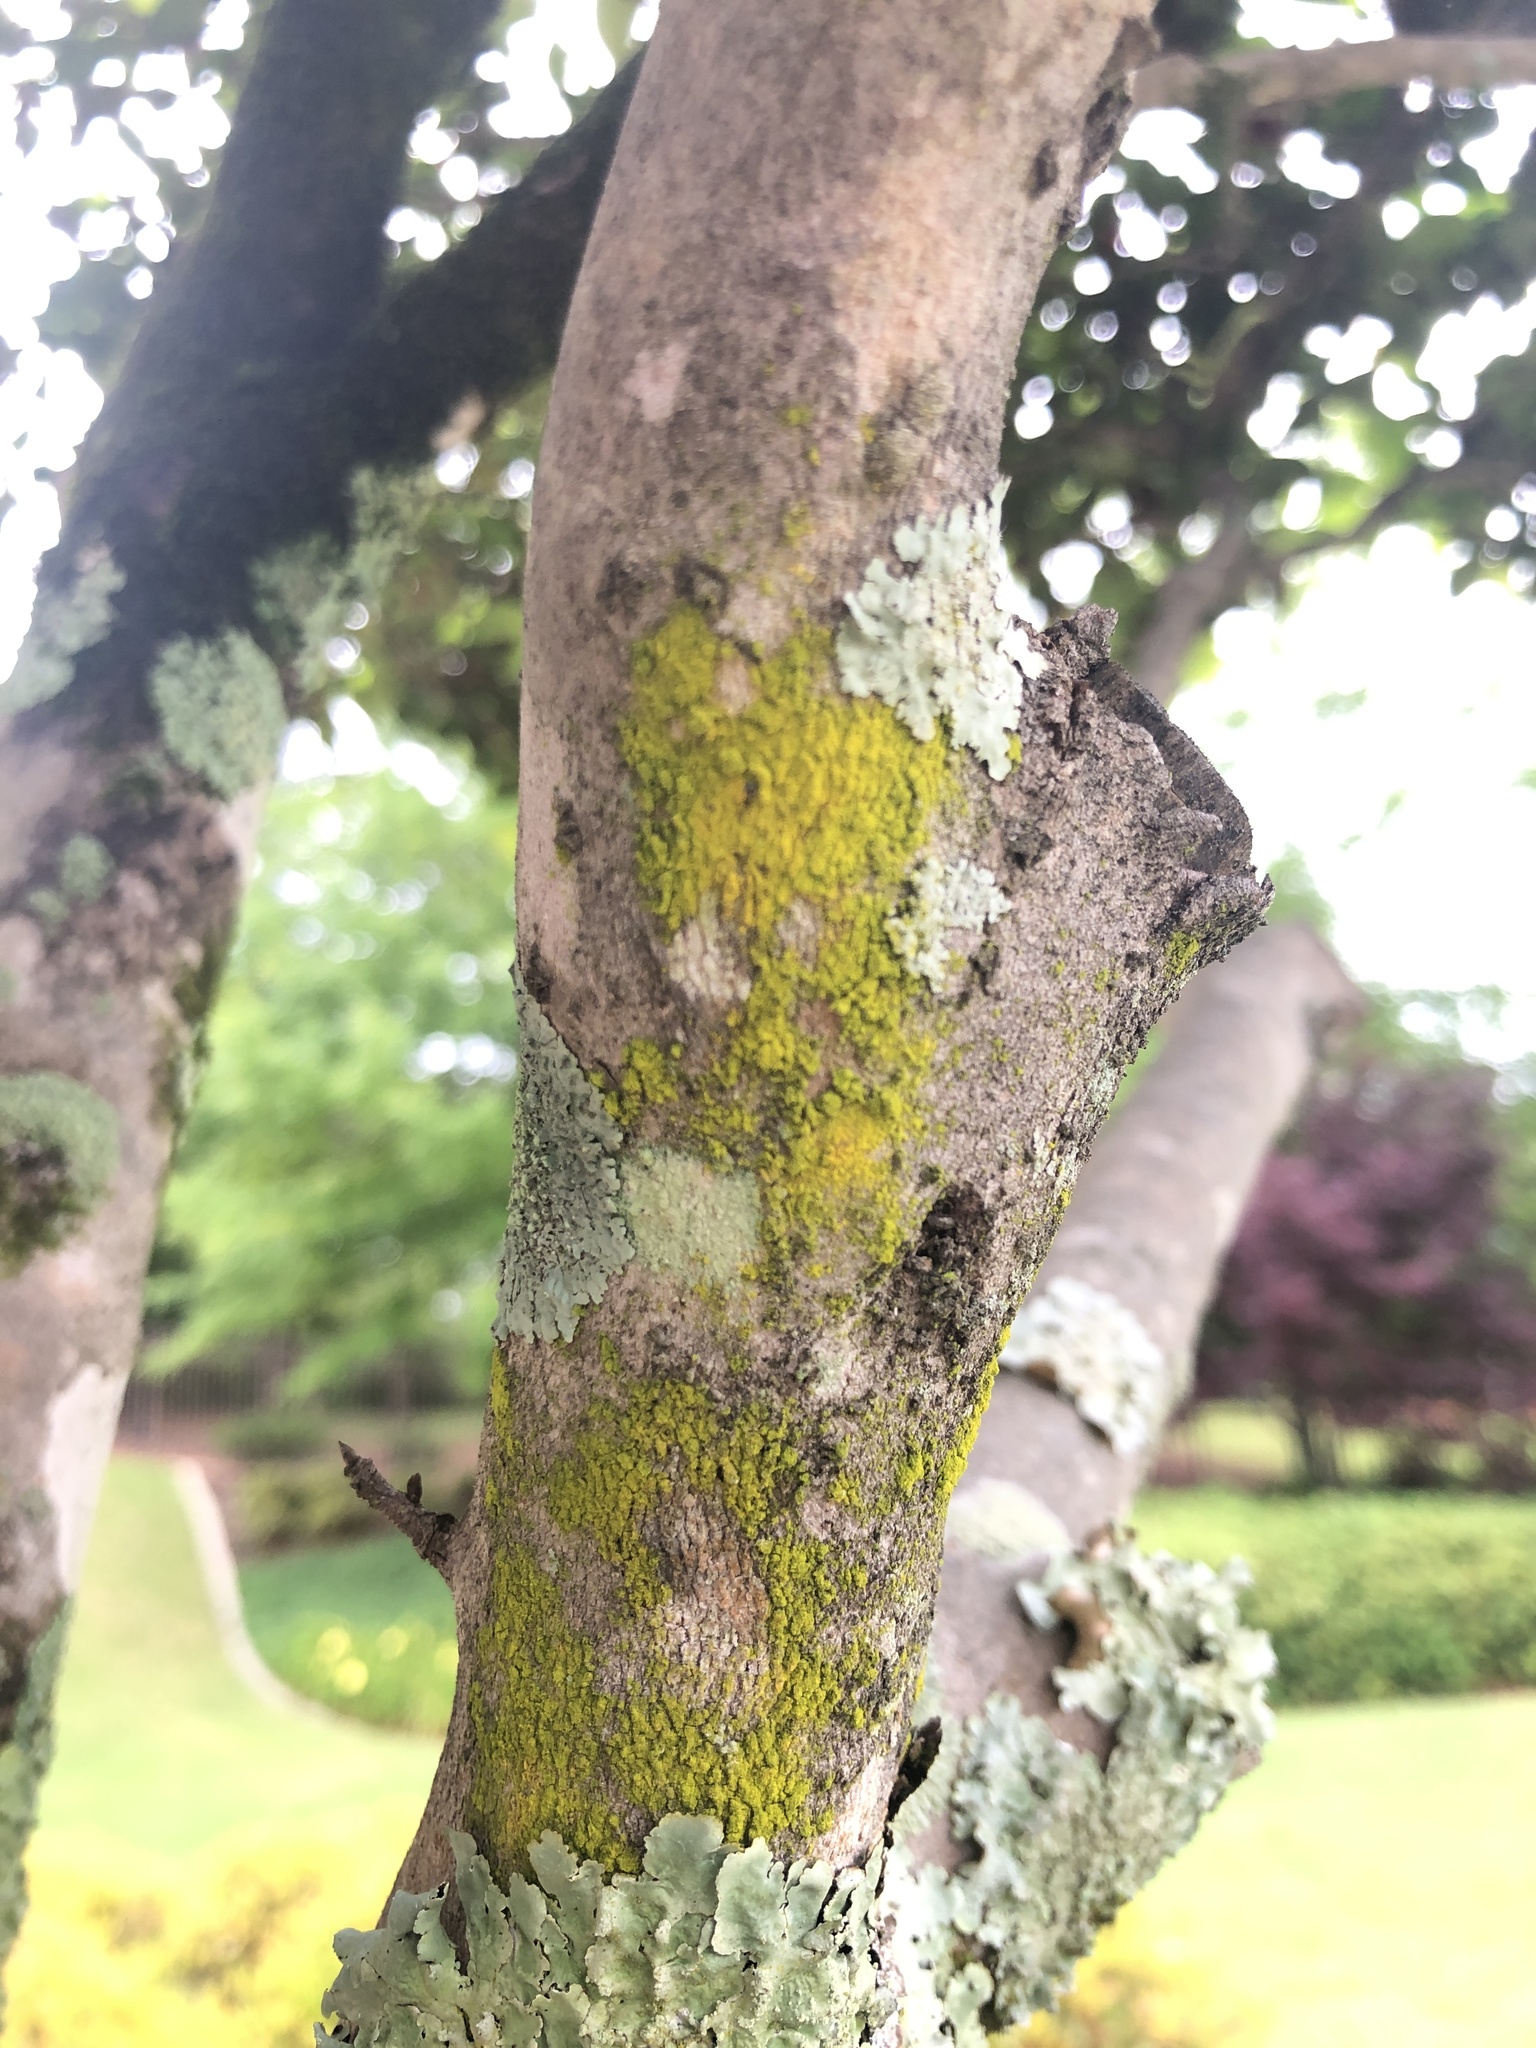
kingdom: Fungi
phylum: Ascomycota
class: Arthoniomycetes
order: Arthoniales
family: Chrysotrichaceae
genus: Chrysothrix
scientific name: Chrysothrix xanthina
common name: Common gold-dust
